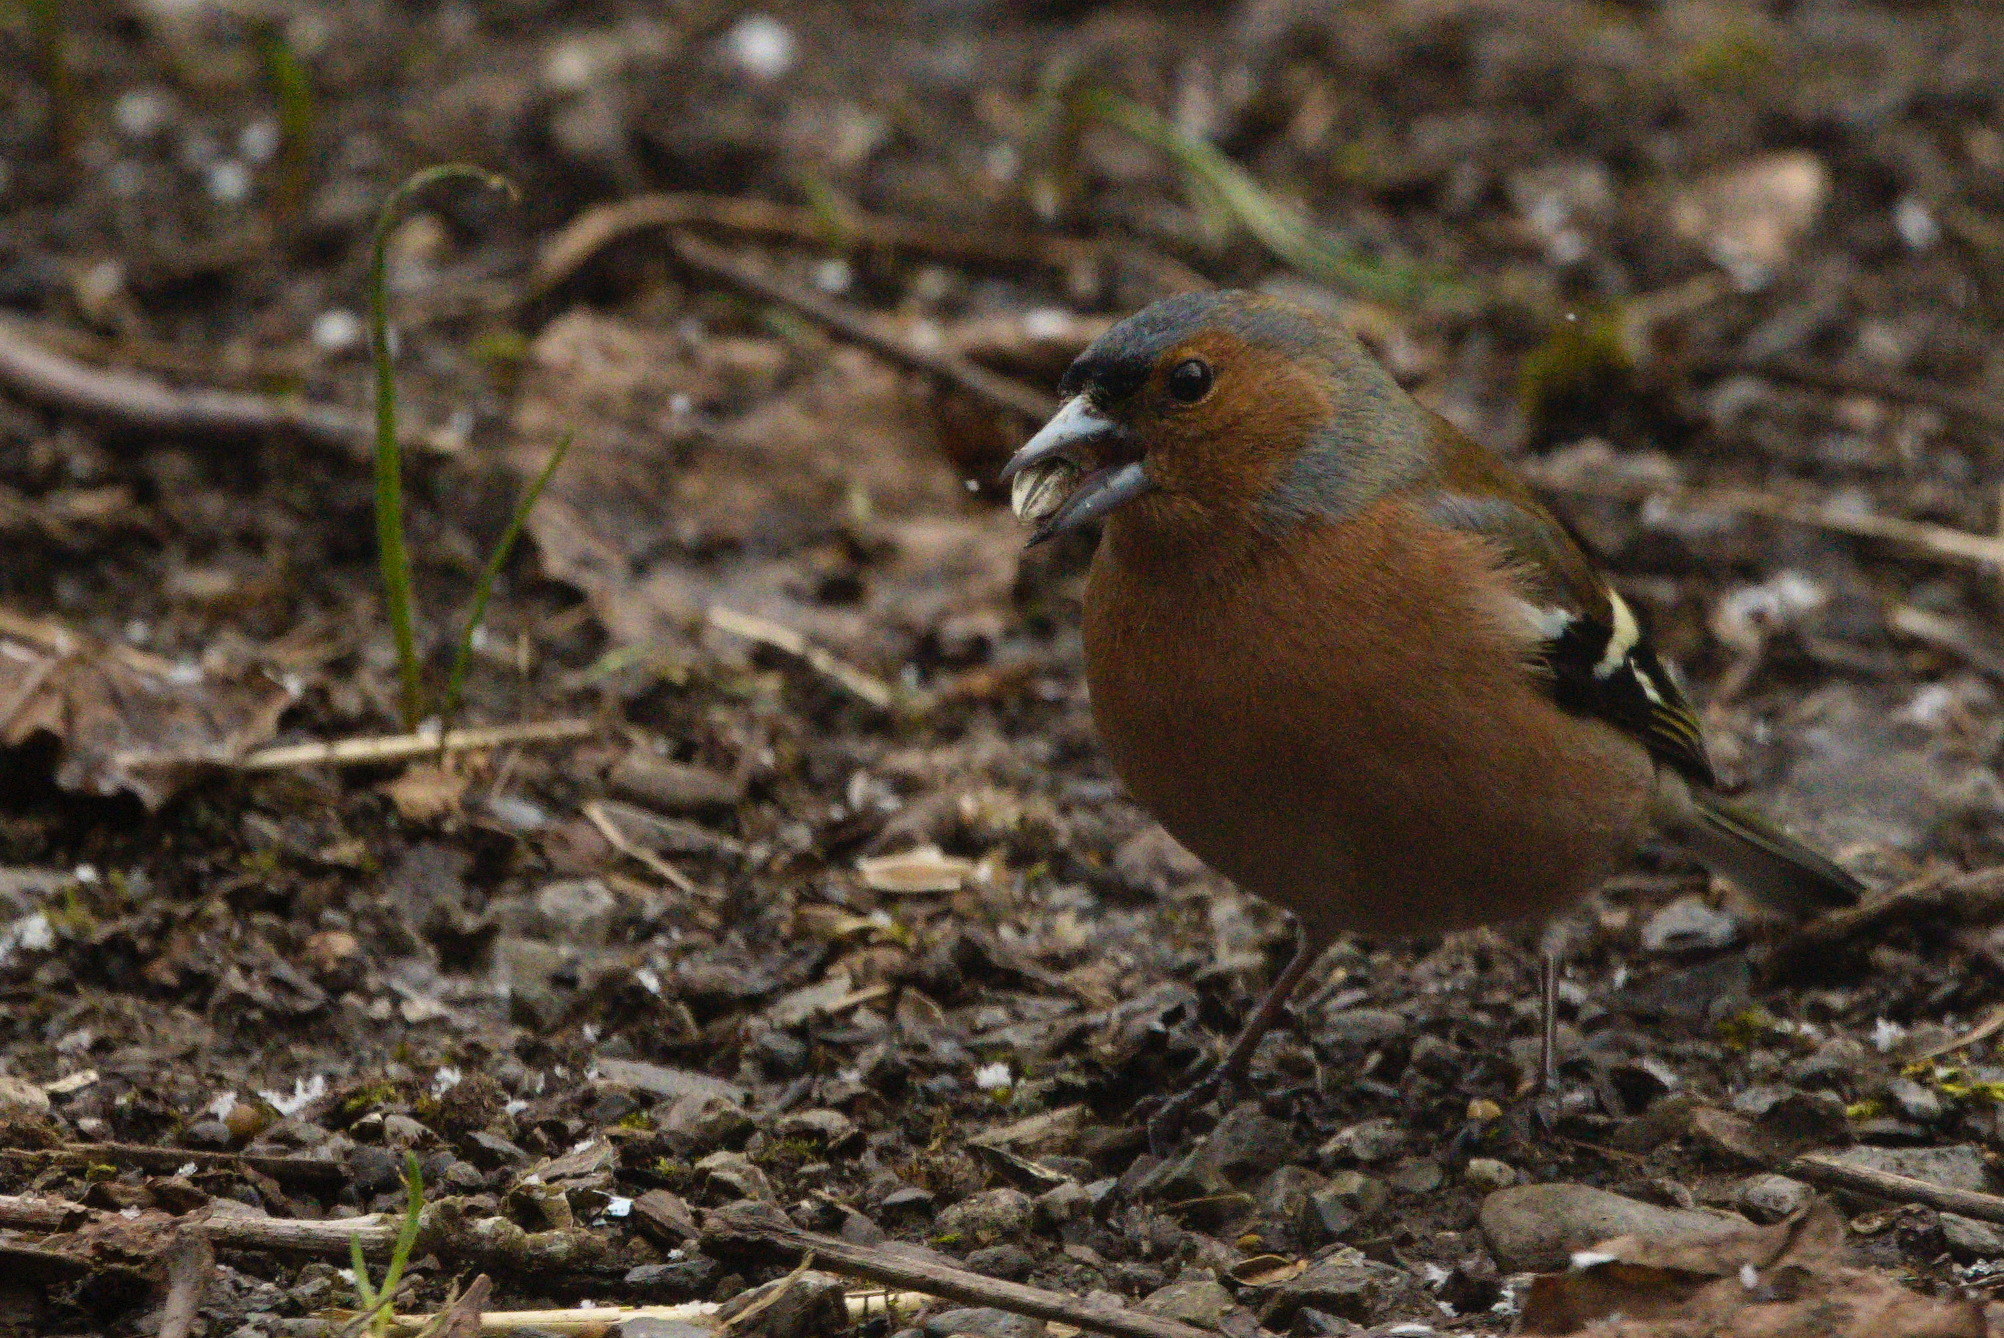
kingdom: Animalia
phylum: Chordata
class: Aves
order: Passeriformes
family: Fringillidae
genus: Fringilla
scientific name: Fringilla coelebs
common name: Common chaffinch
